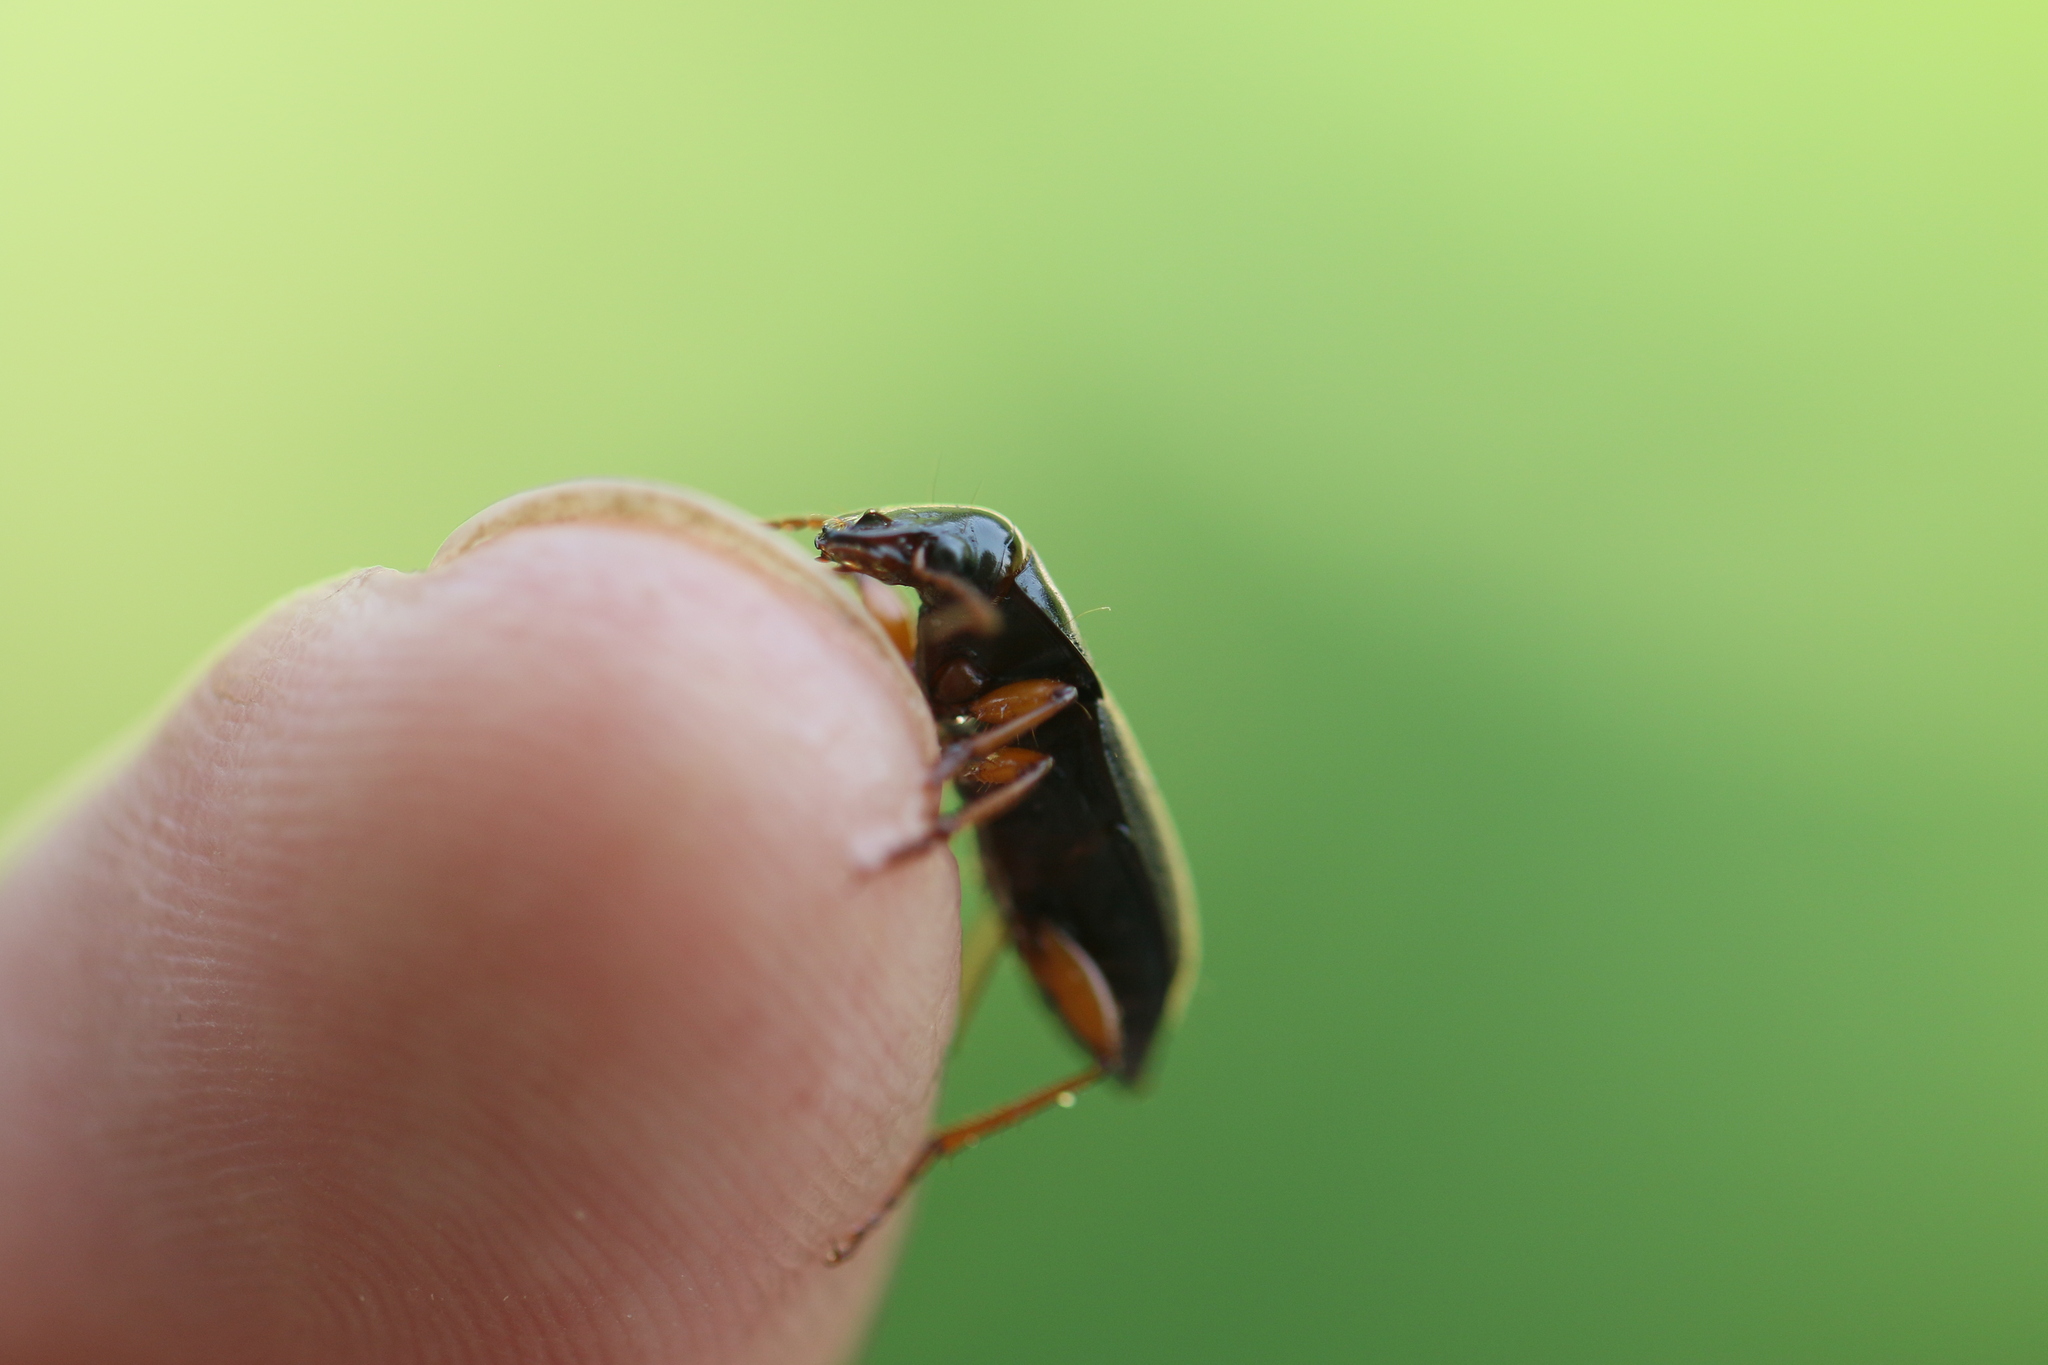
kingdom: Animalia
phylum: Arthropoda
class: Insecta
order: Coleoptera
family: Carabidae
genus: Harpalus
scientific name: Harpalus rufipes
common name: Strawberry harp ground beetle
